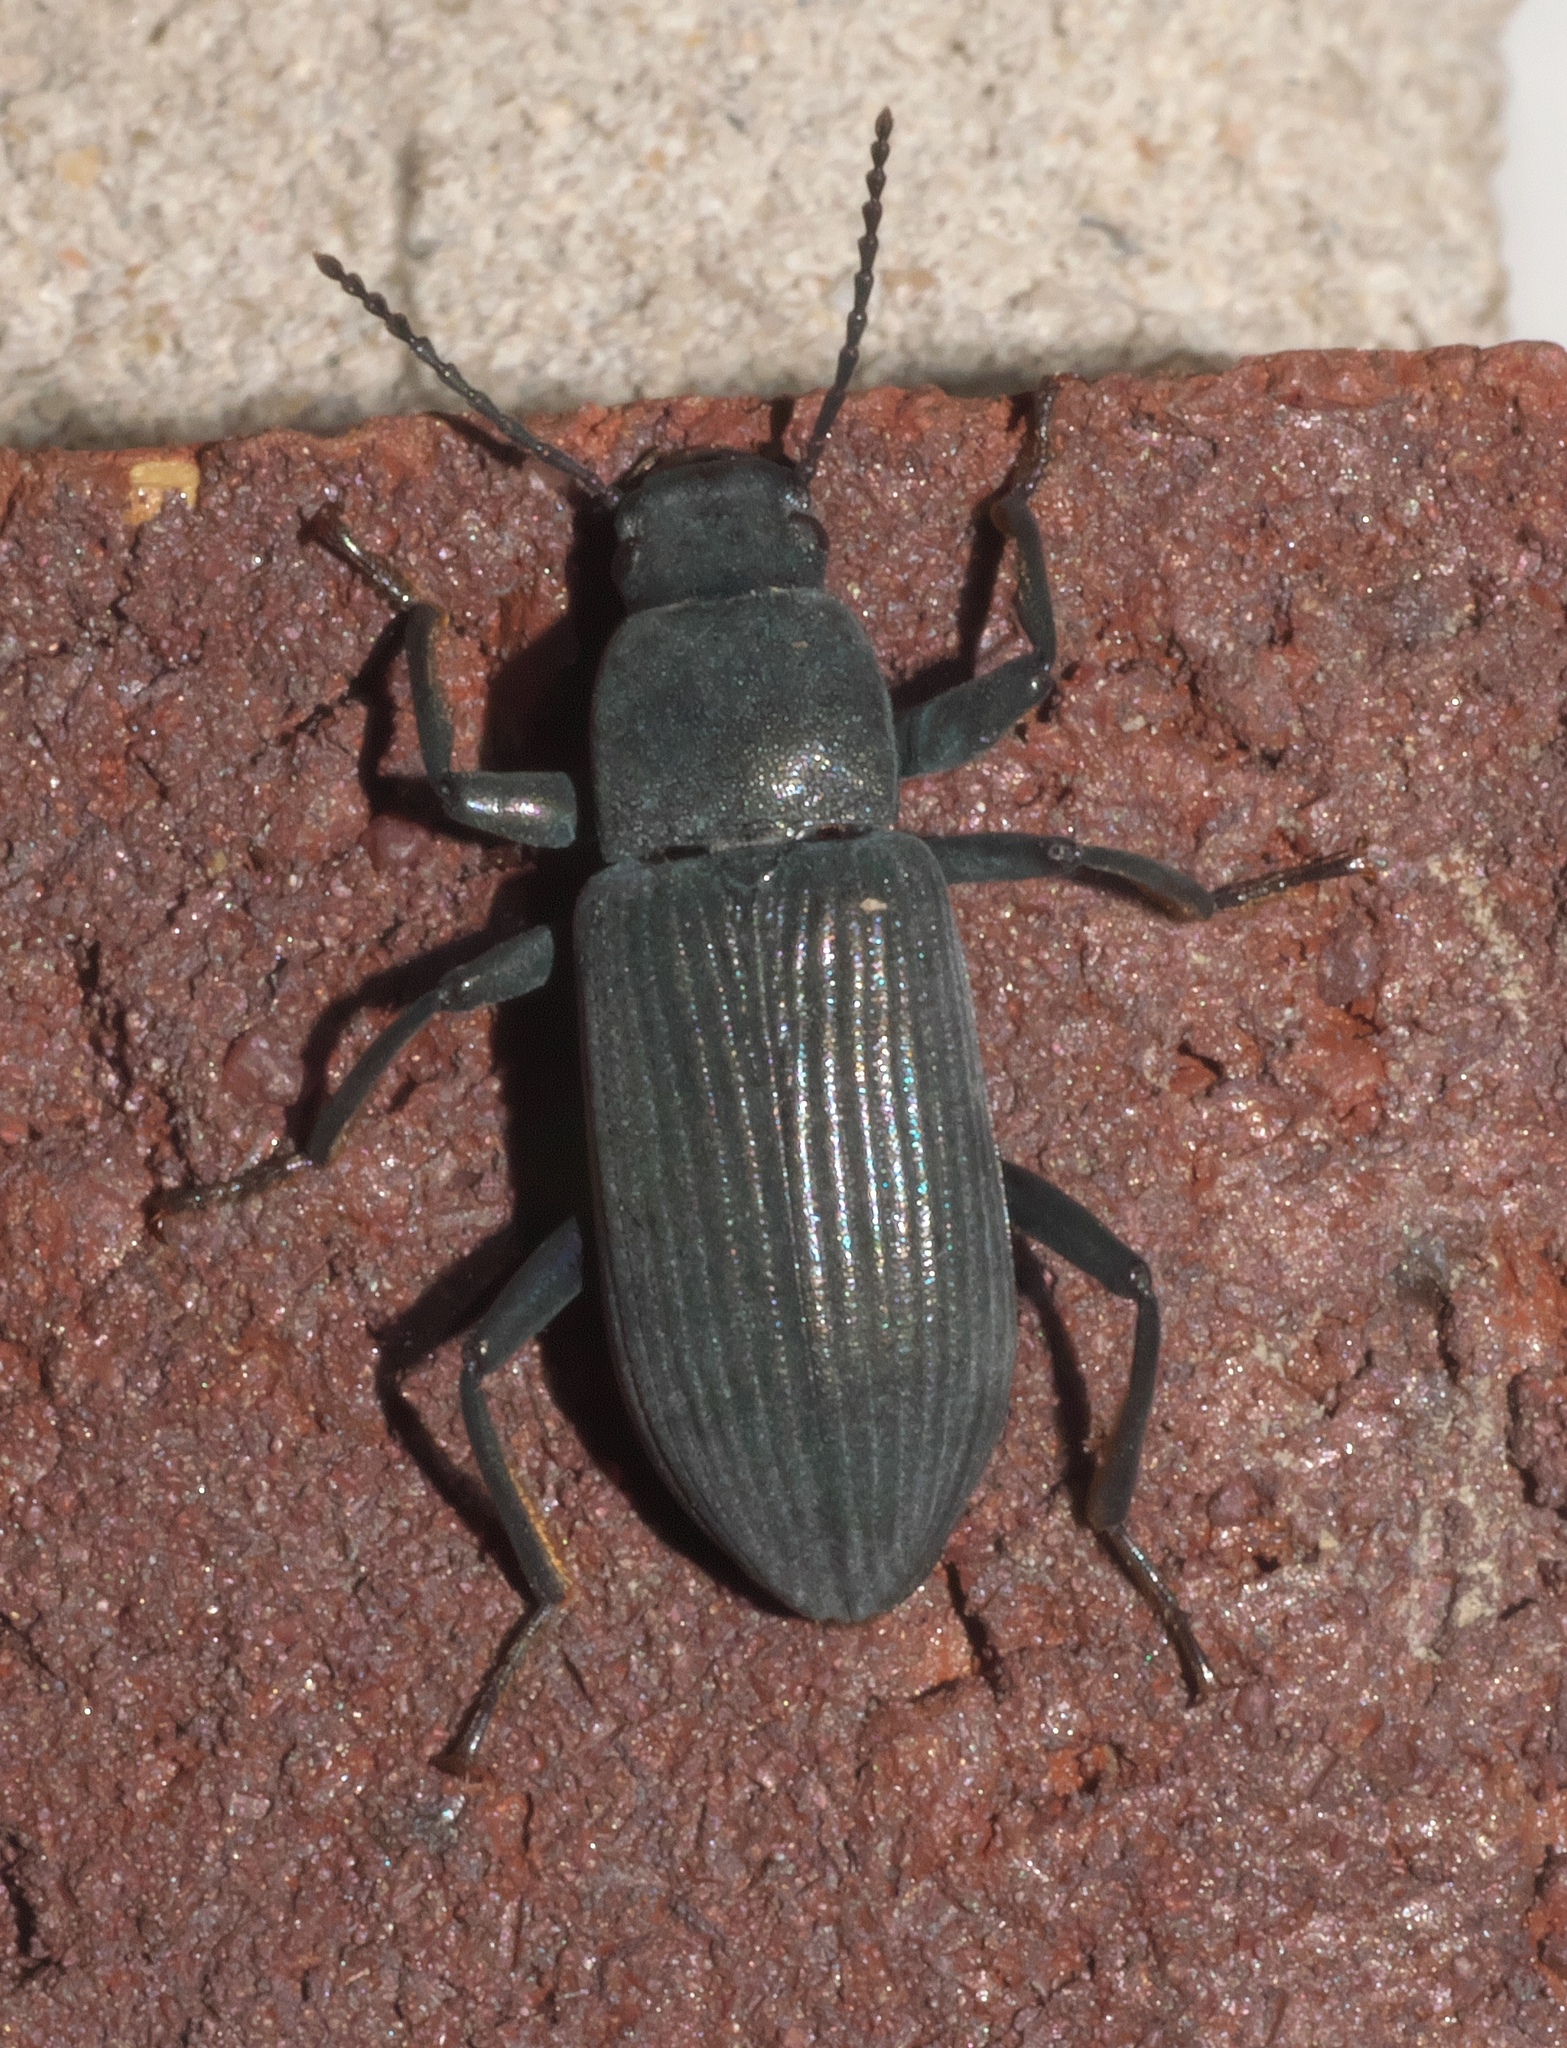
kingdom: Animalia
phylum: Arthropoda
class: Insecta
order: Coleoptera
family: Tenebrionidae
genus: Xylopinus
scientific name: Xylopinus saperdoides
